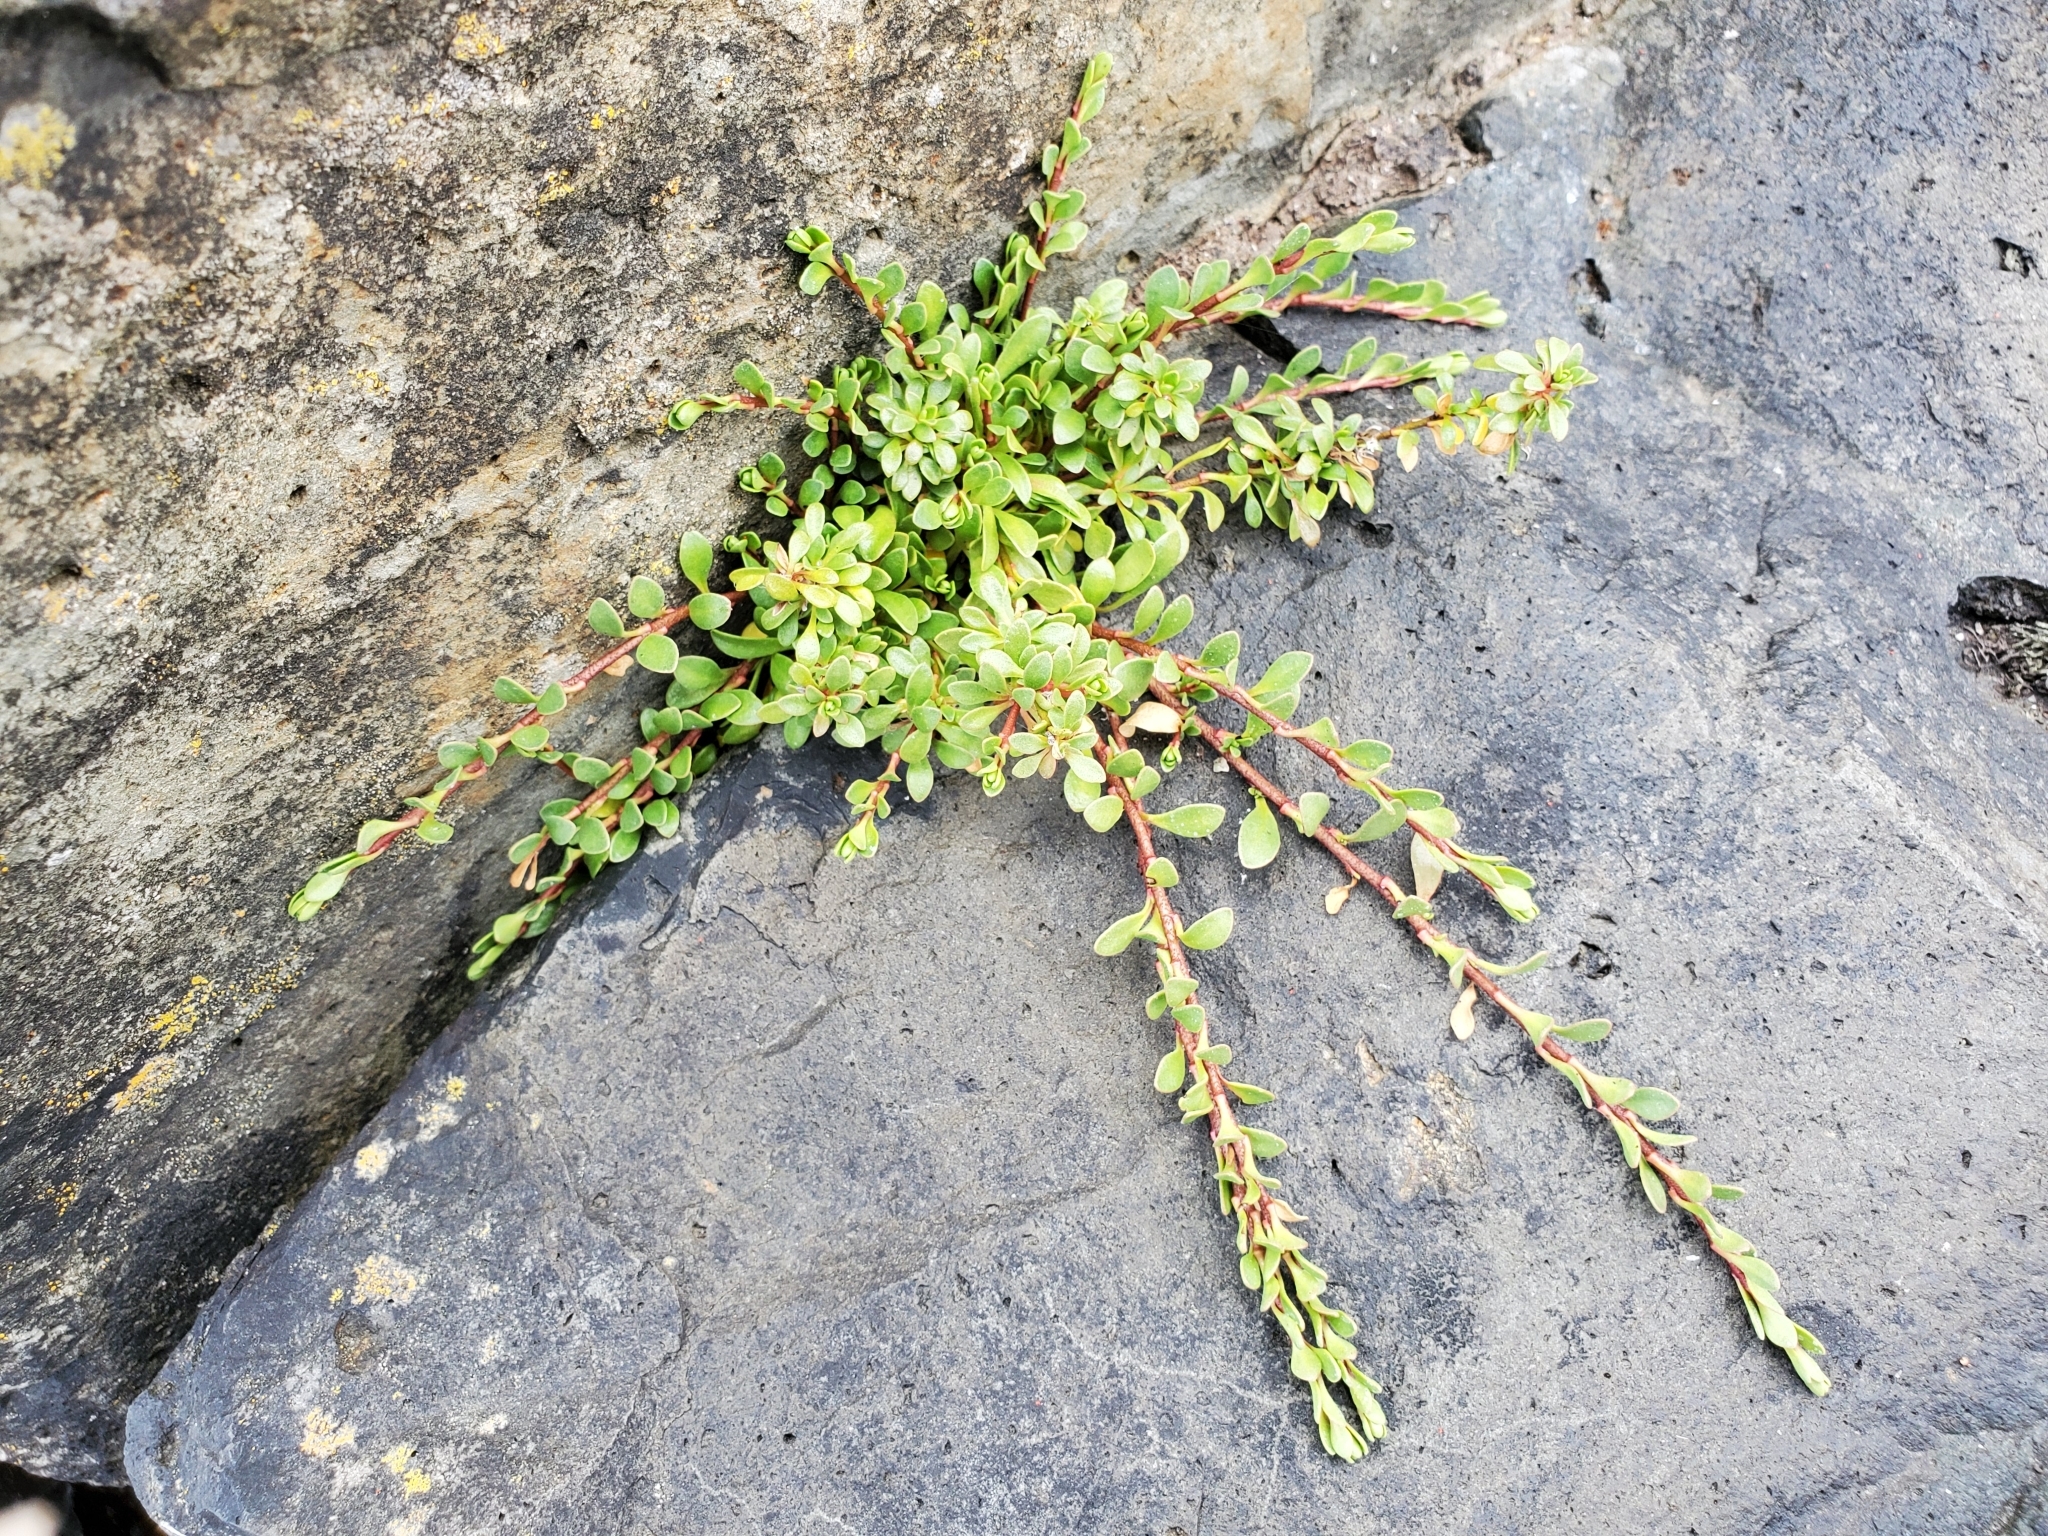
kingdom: Plantae
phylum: Tracheophyta
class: Magnoliopsida
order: Ericales
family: Primulaceae
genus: Samolus
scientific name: Samolus repens
